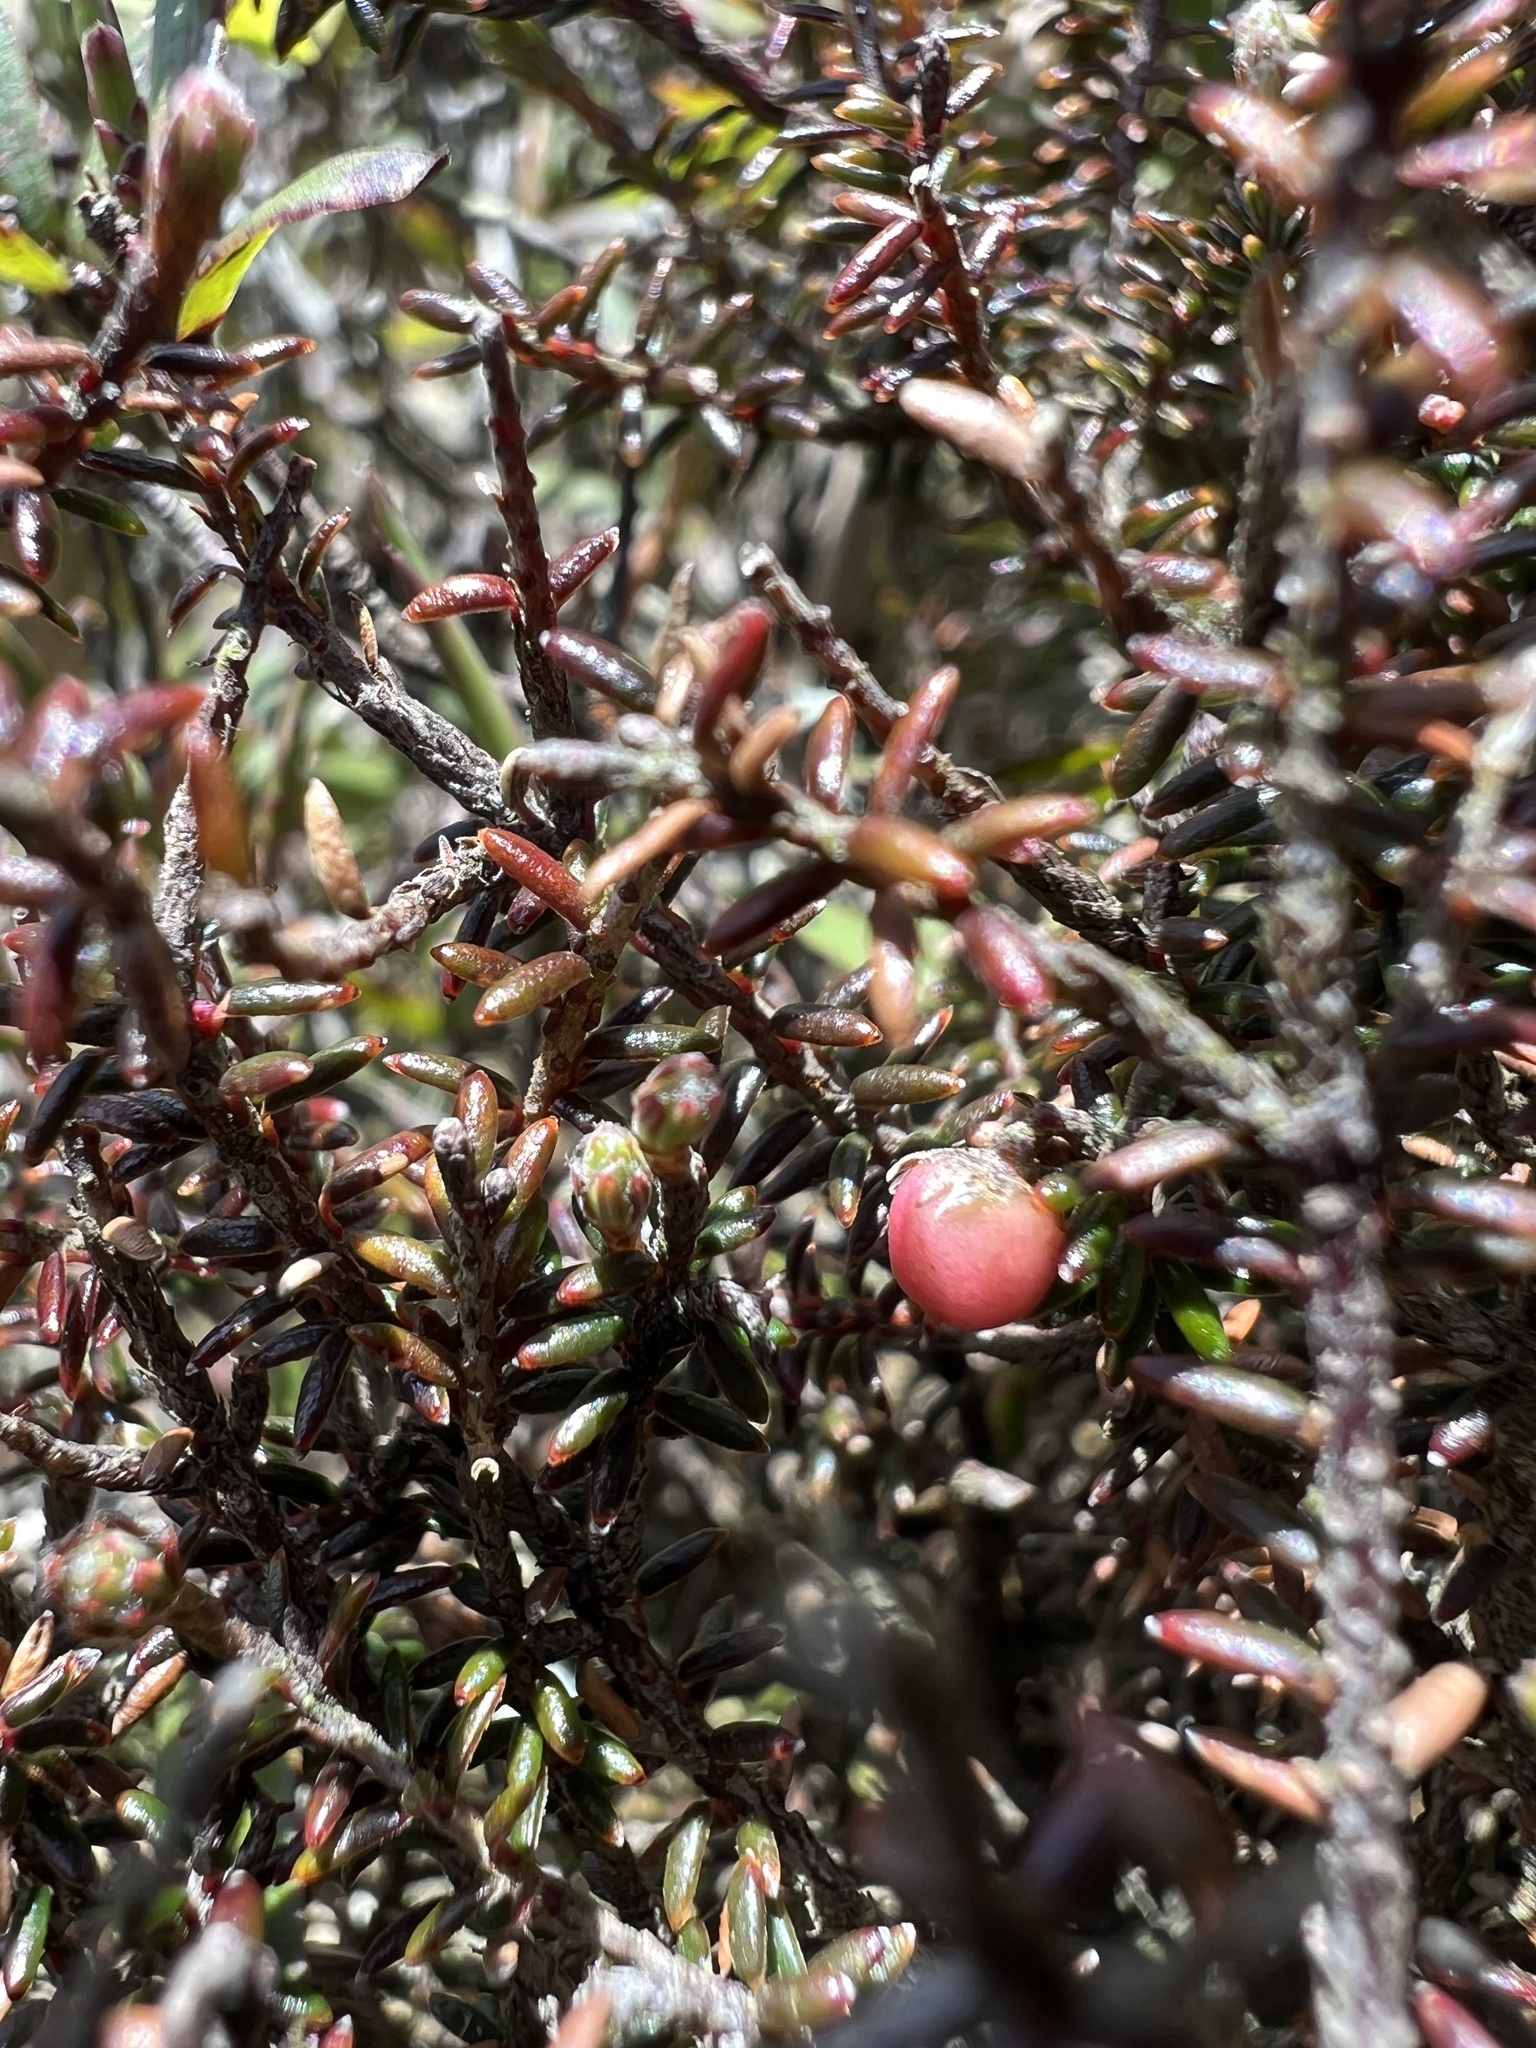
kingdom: Plantae
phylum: Tracheophyta
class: Magnoliopsida
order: Ericales
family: Ericaceae
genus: Androstoma
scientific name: Androstoma empetrifolia
